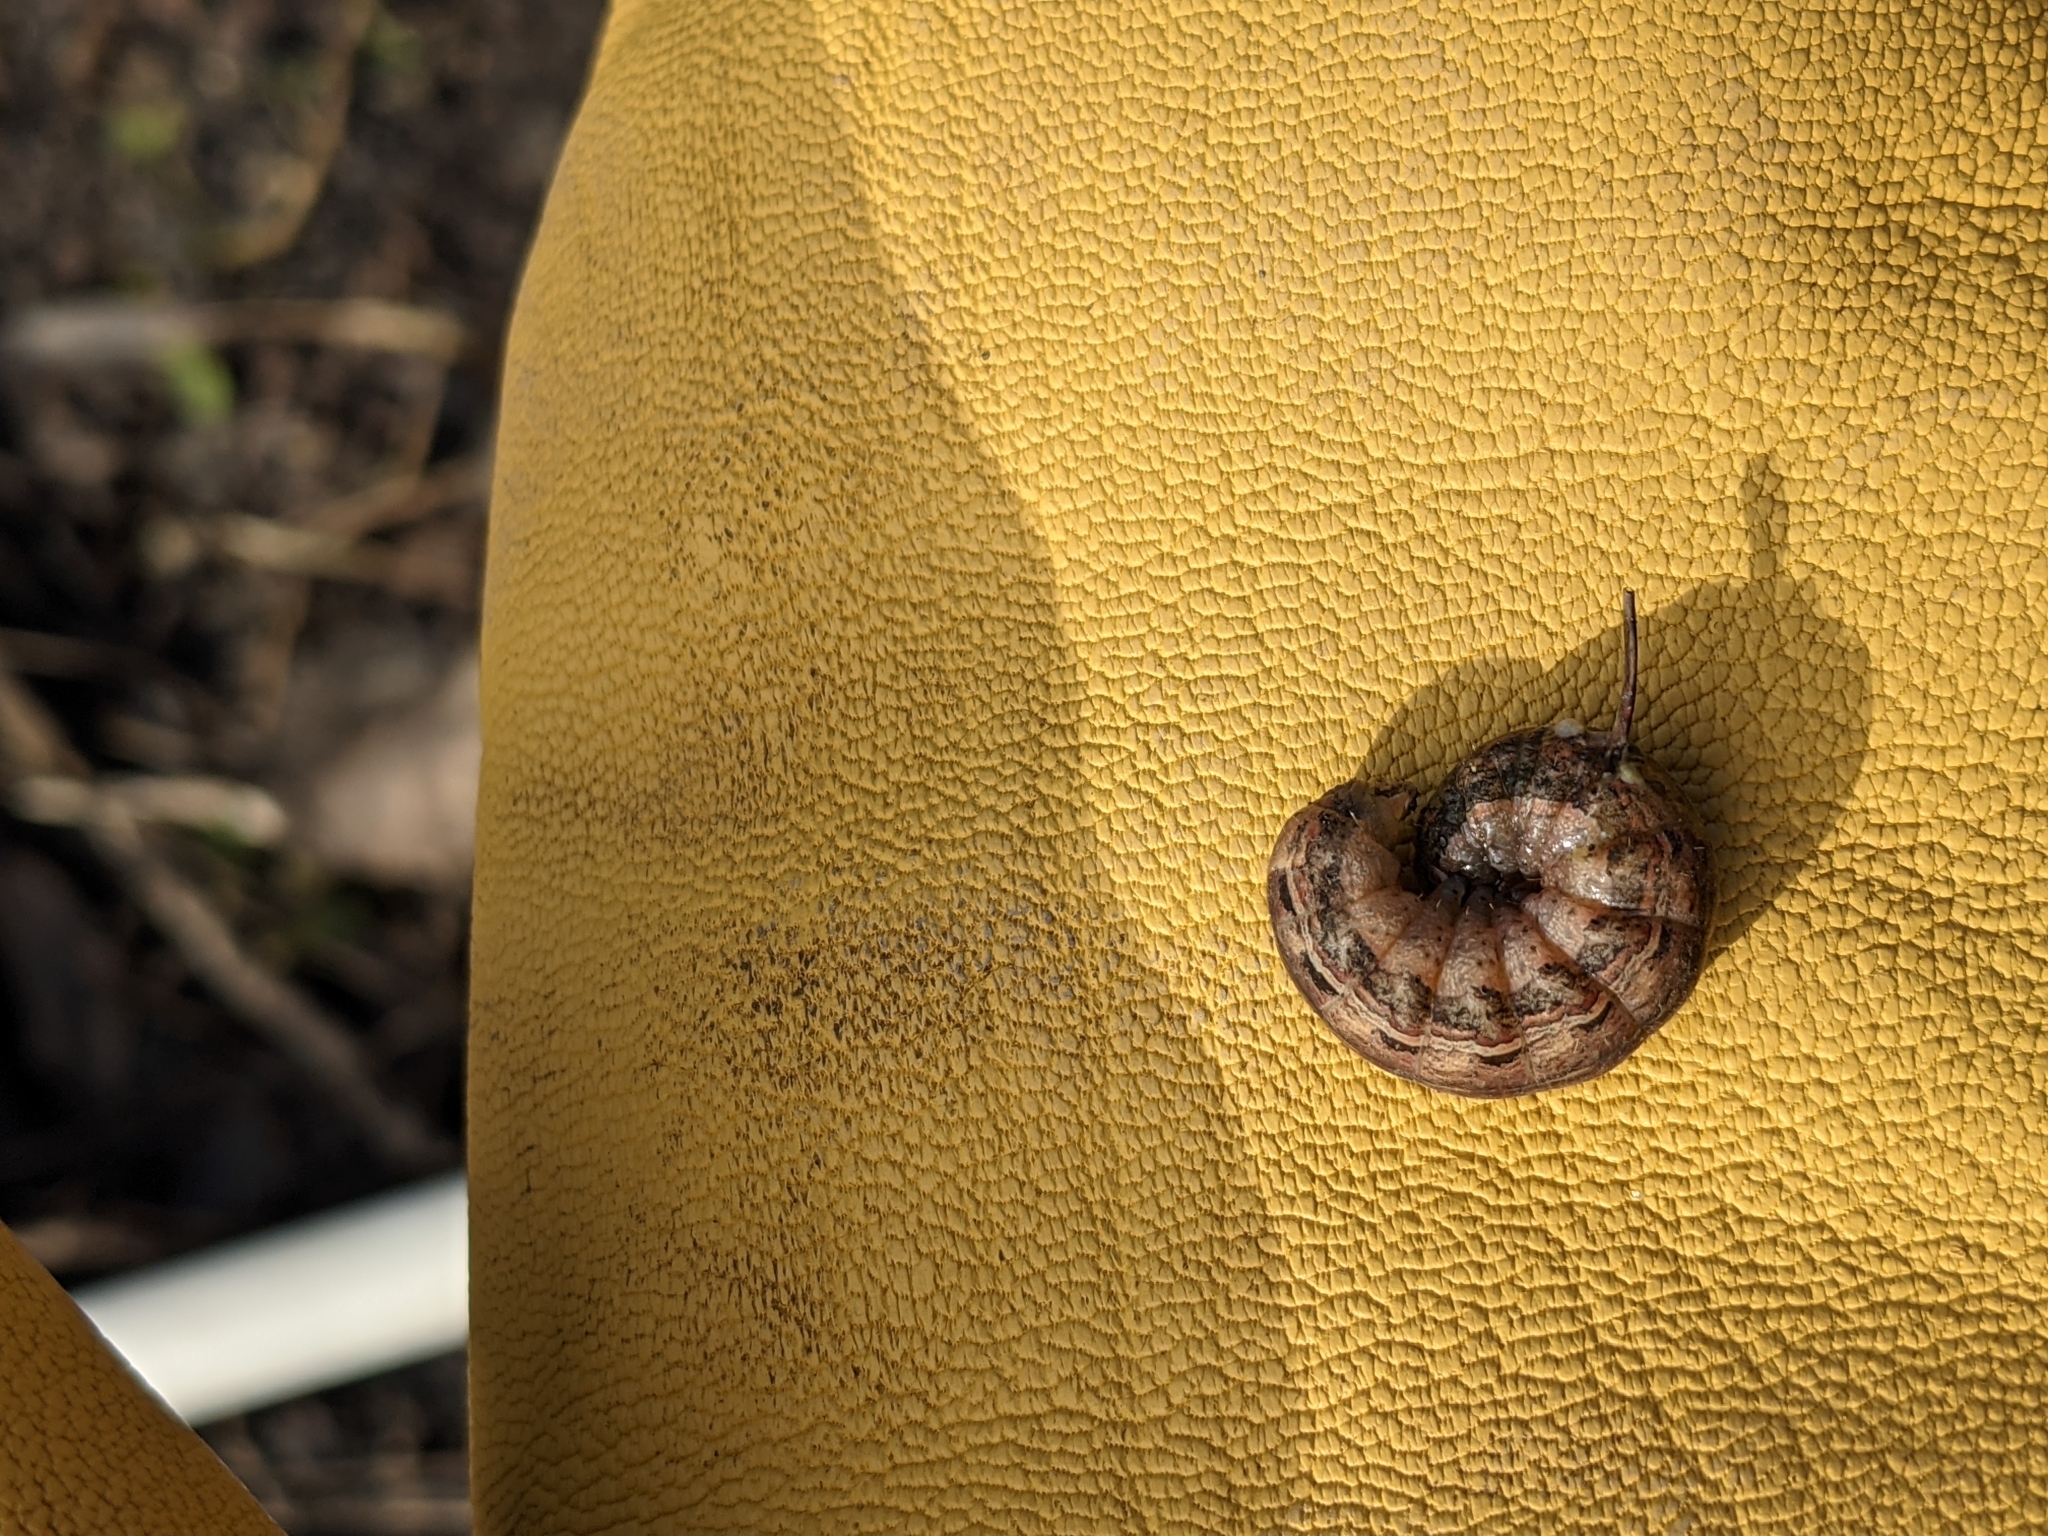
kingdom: Animalia
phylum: Arthropoda
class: Insecta
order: Lepidoptera
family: Noctuidae
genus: Noctua
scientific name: Noctua pronuba
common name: Large yellow underwing
